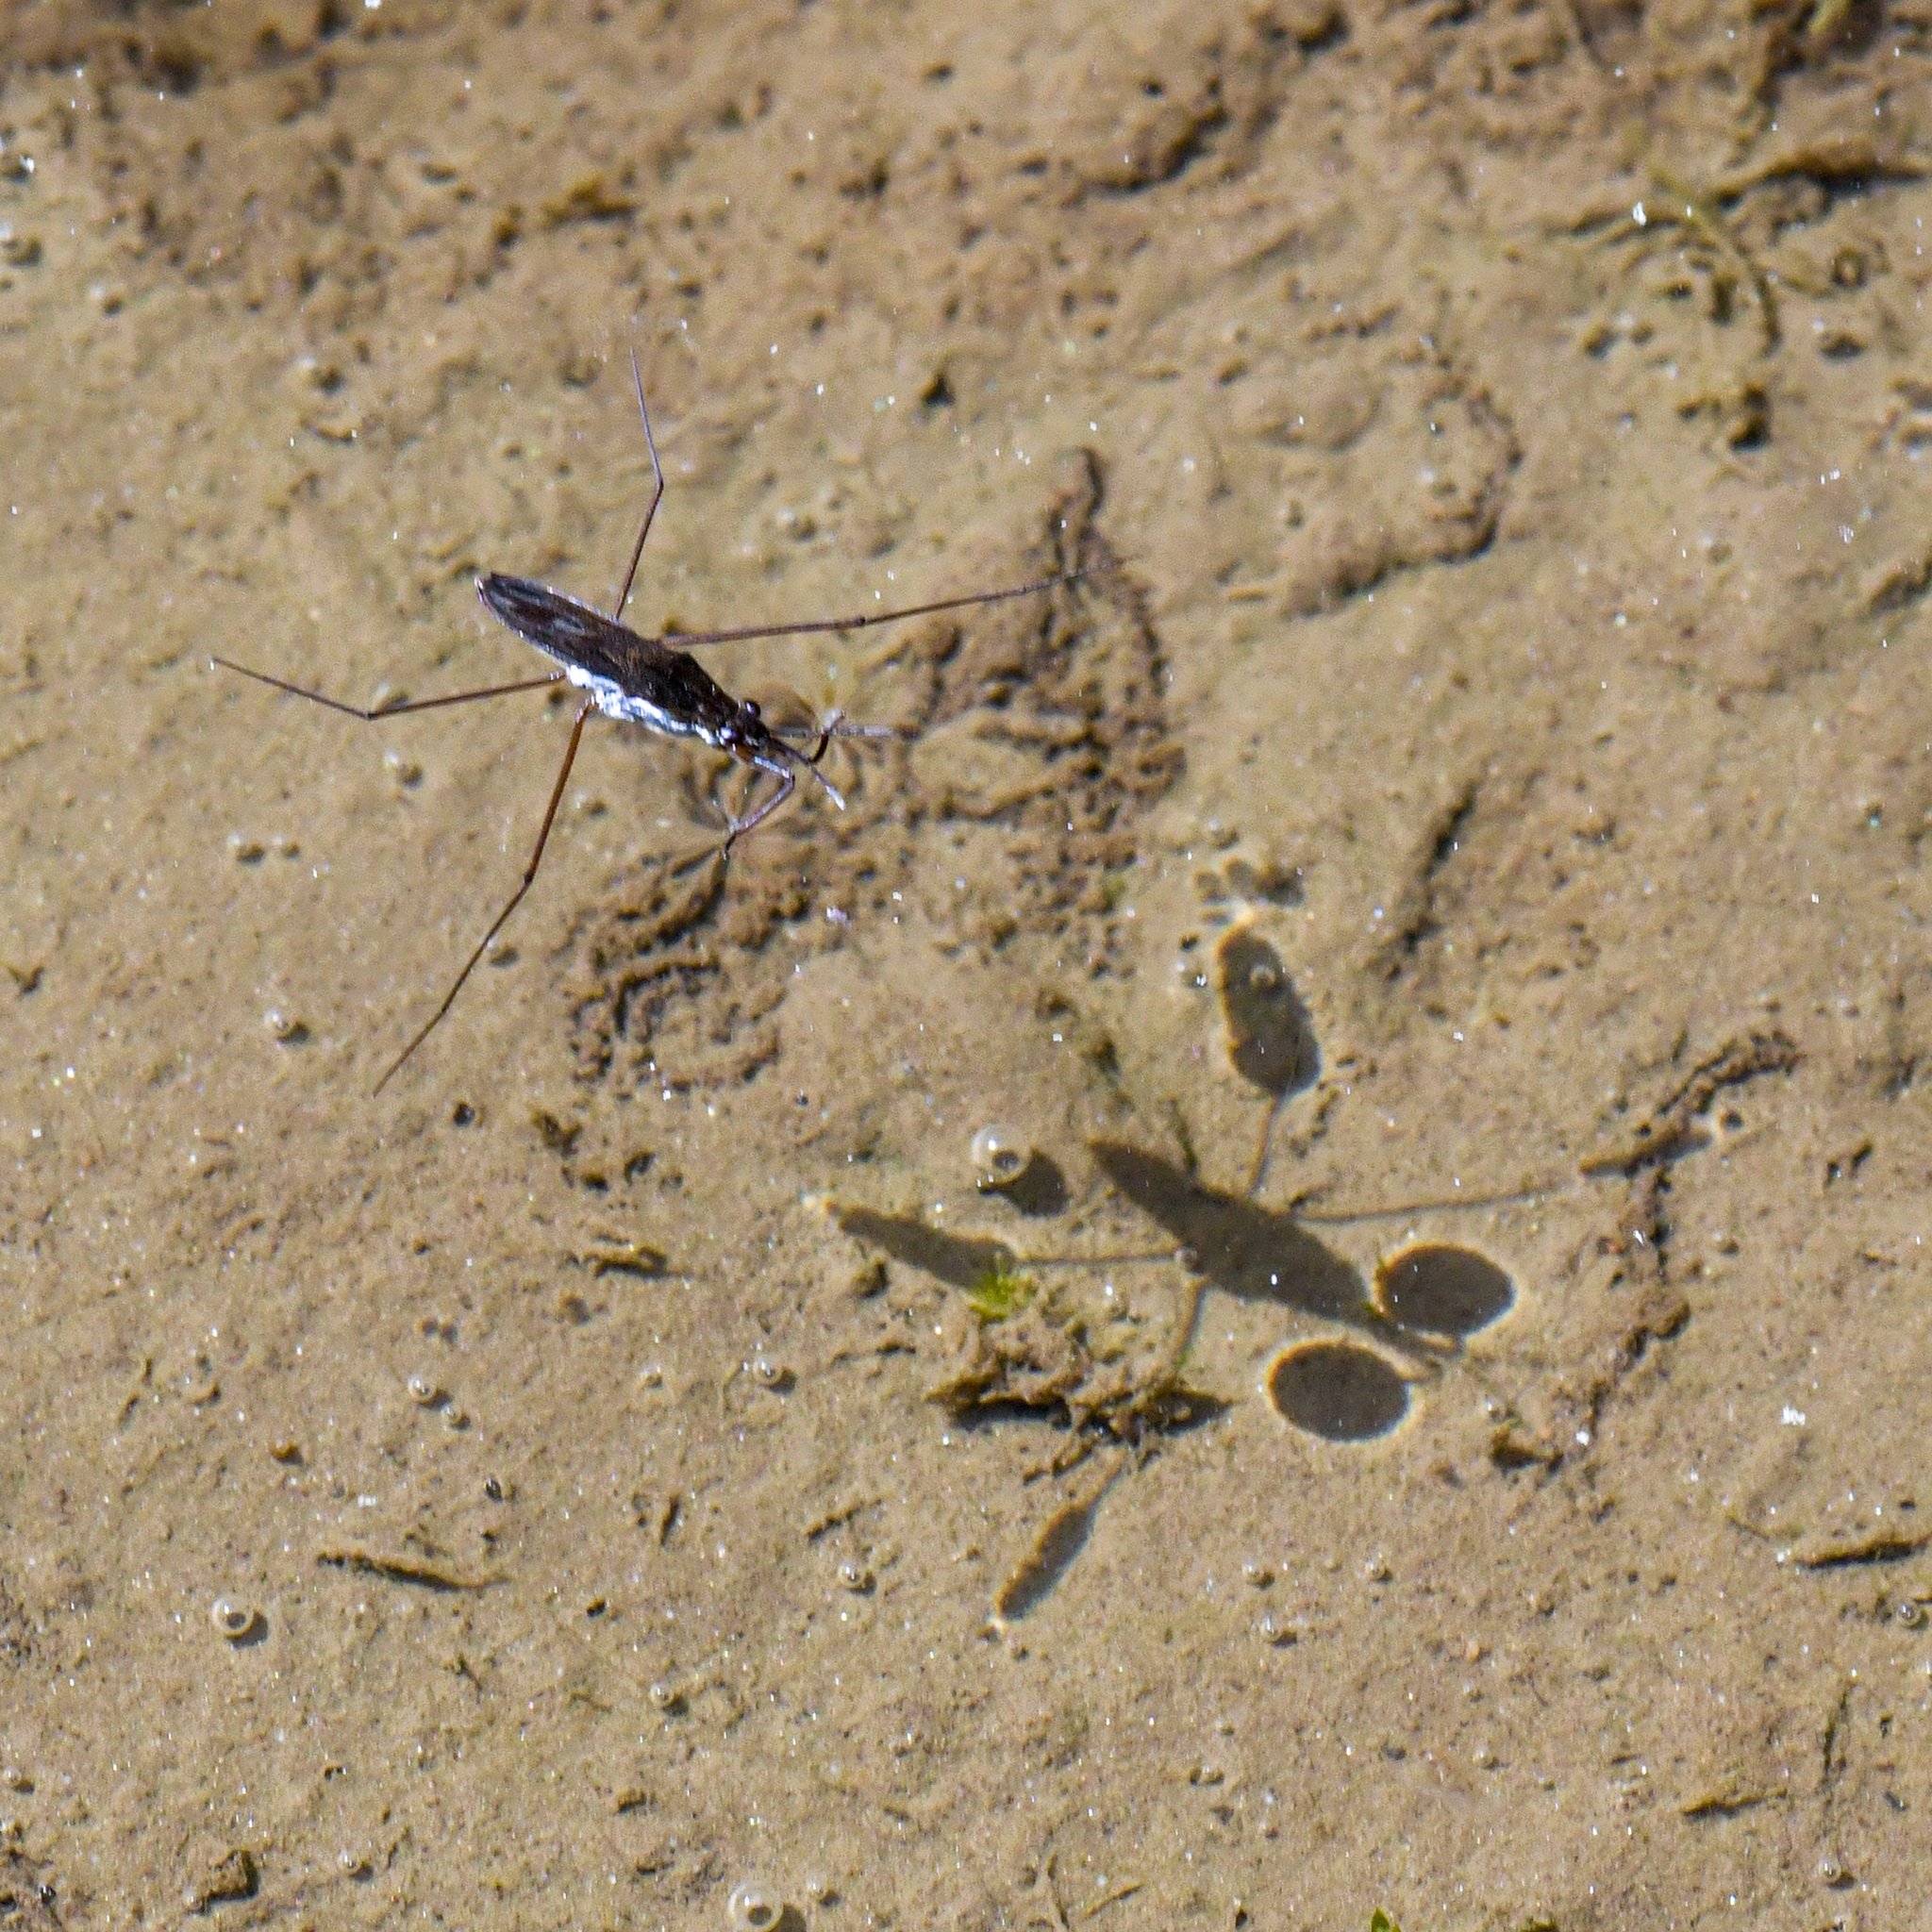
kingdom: Animalia
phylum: Arthropoda
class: Insecta
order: Hemiptera
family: Gerridae
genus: Gerris
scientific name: Gerris lacustris
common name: Common pondskater
